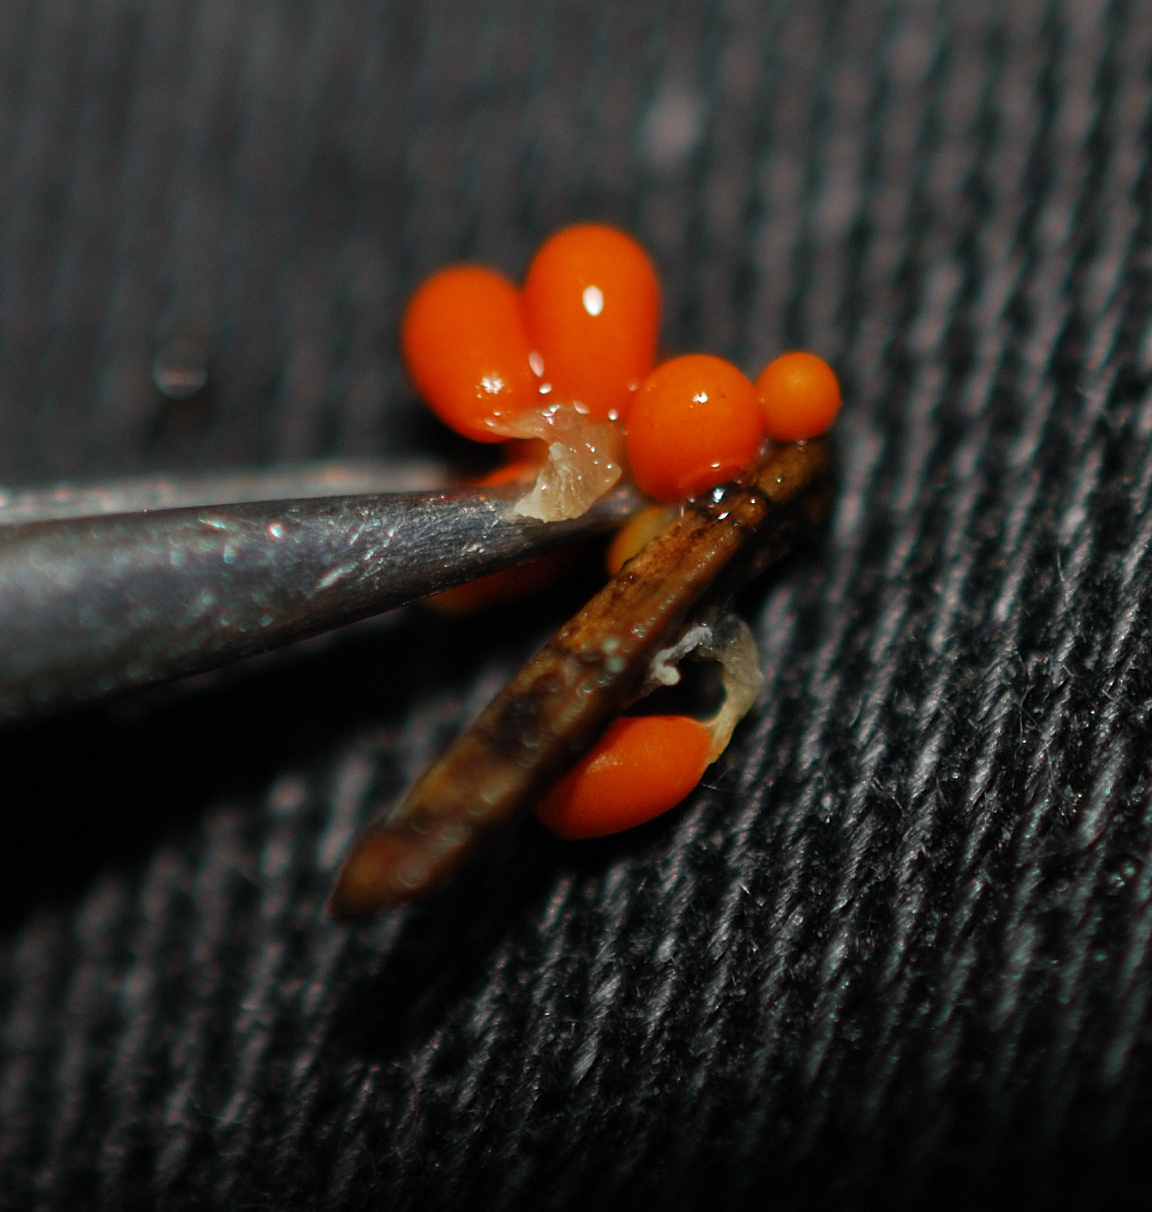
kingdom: Protozoa
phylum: Mycetozoa
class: Myxomycetes
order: Physarales
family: Physaraceae
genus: Leocarpus
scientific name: Leocarpus fragilis
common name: Insect-egg slime
